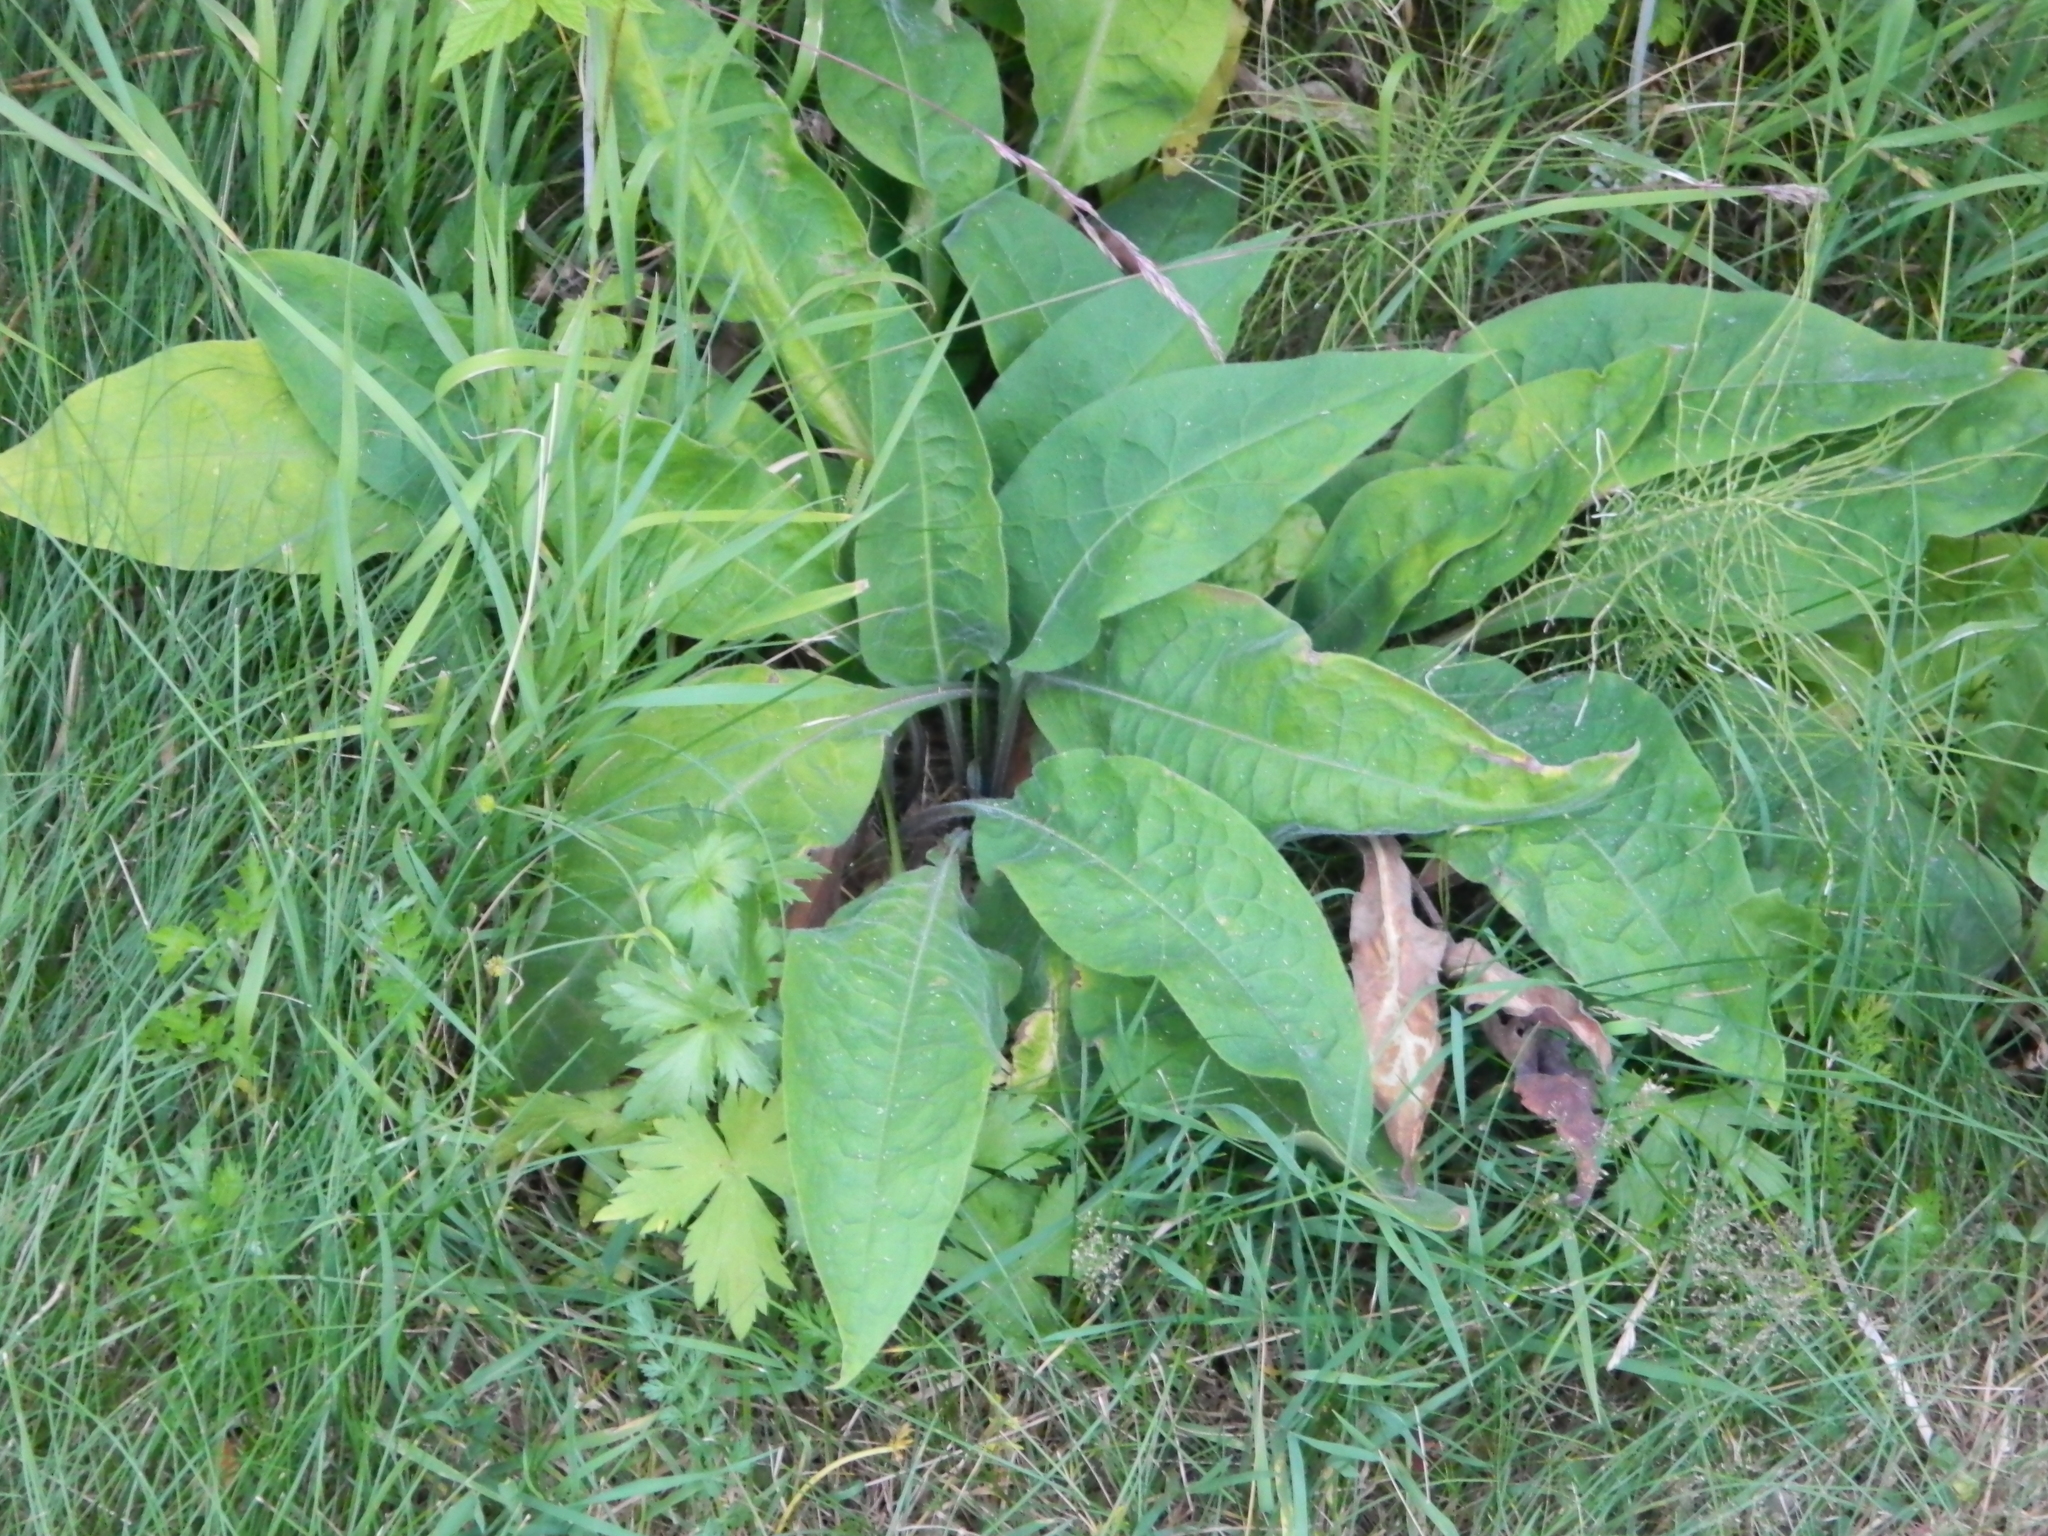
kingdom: Plantae
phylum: Tracheophyta
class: Magnoliopsida
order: Boraginales
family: Boraginaceae
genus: Pulmonaria
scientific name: Pulmonaria mollis
